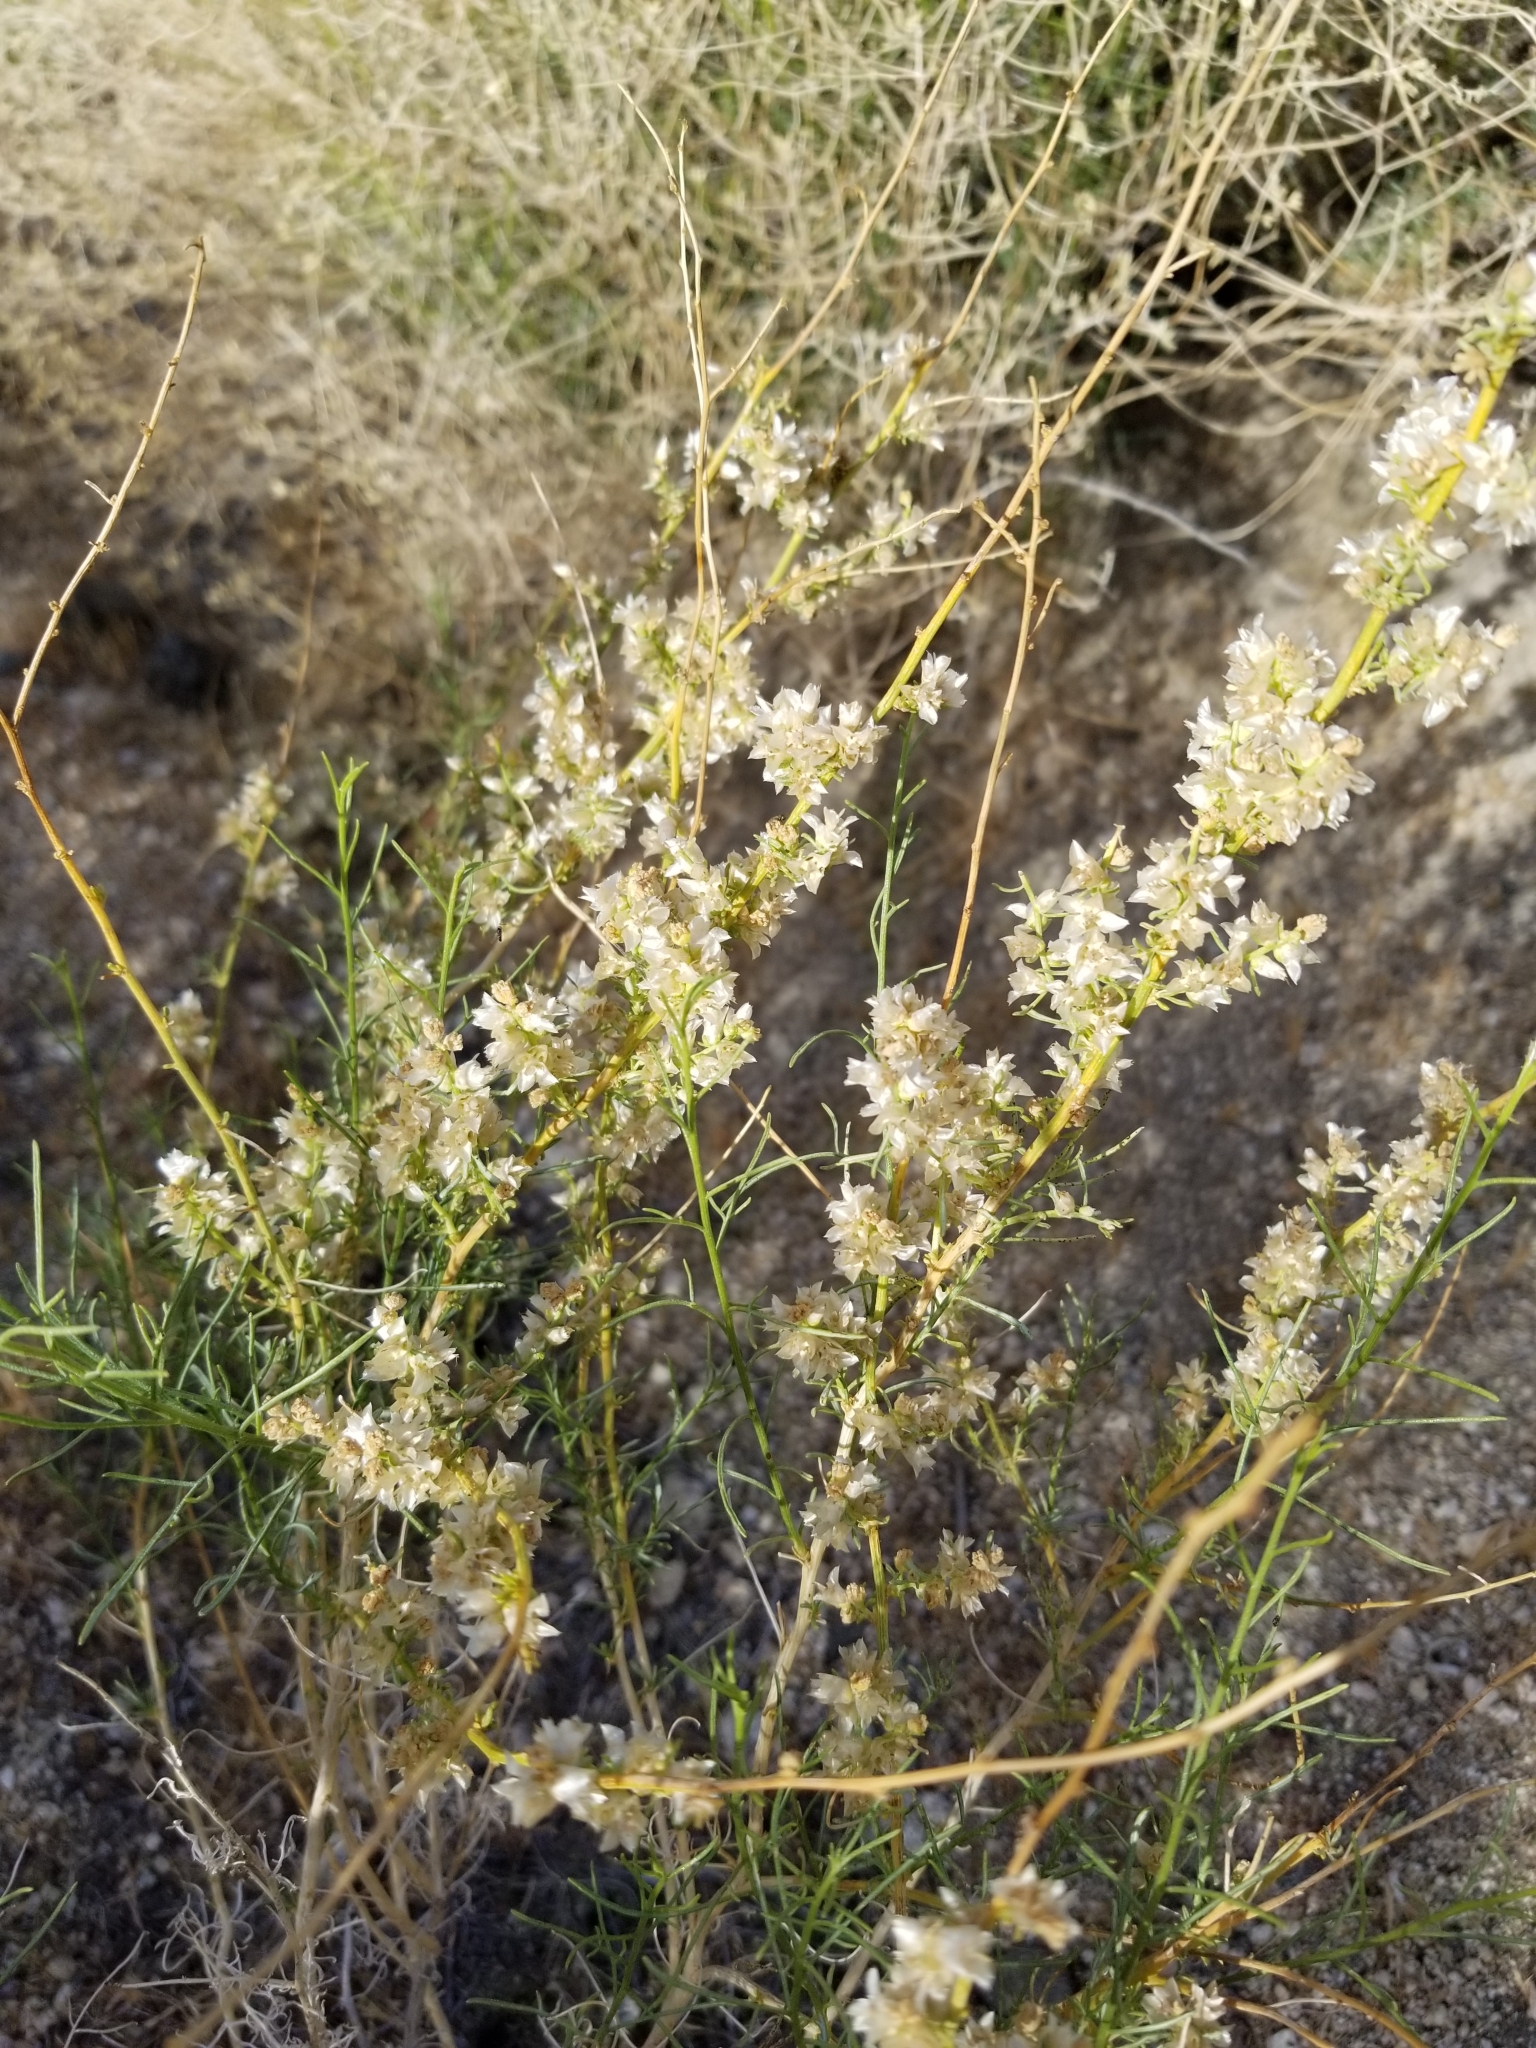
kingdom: Plantae
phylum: Tracheophyta
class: Magnoliopsida
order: Asterales
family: Asteraceae
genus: Ambrosia
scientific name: Ambrosia salsola
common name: Burrobrush
